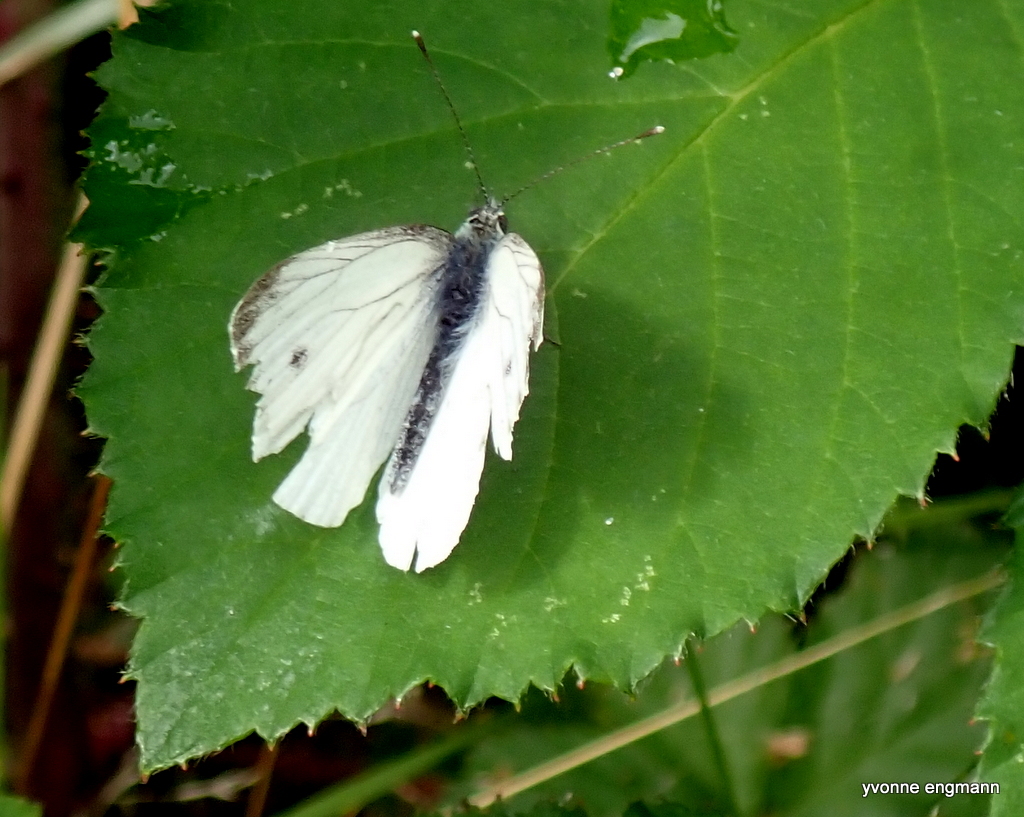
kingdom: Animalia
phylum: Arthropoda
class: Insecta
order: Lepidoptera
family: Pieridae
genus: Pieris
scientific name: Pieris napi
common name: Green-veined white
